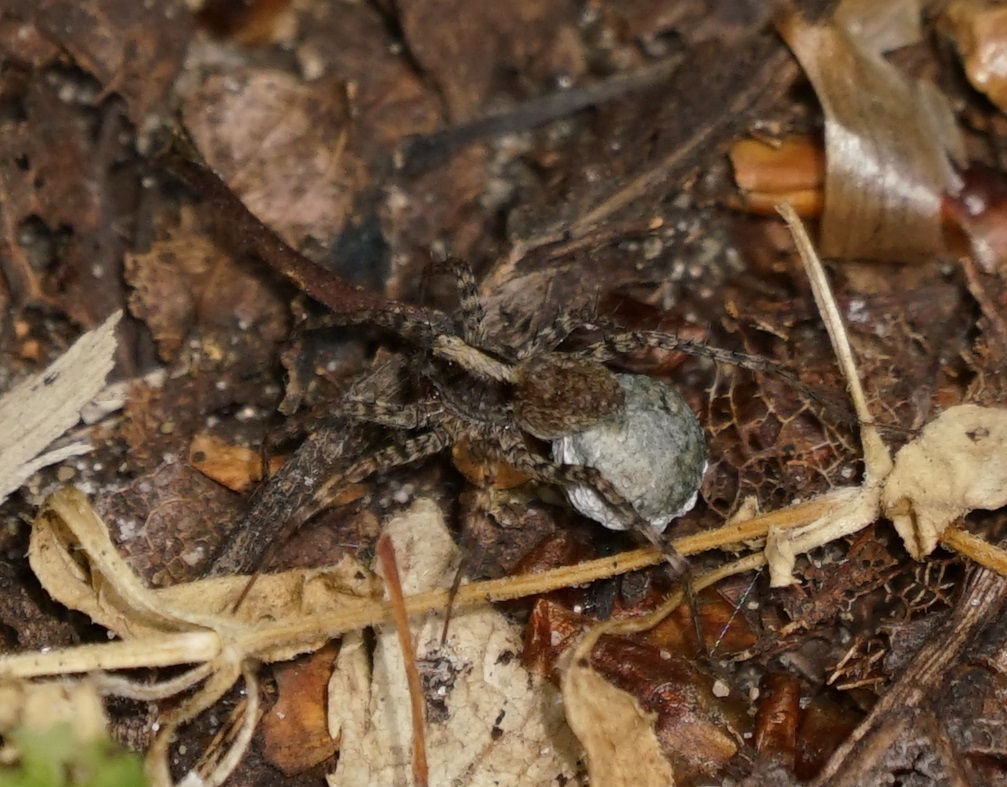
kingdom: Animalia
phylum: Arthropoda
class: Arachnida
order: Araneae
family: Lycosidae
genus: Pardosa
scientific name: Pardosa
